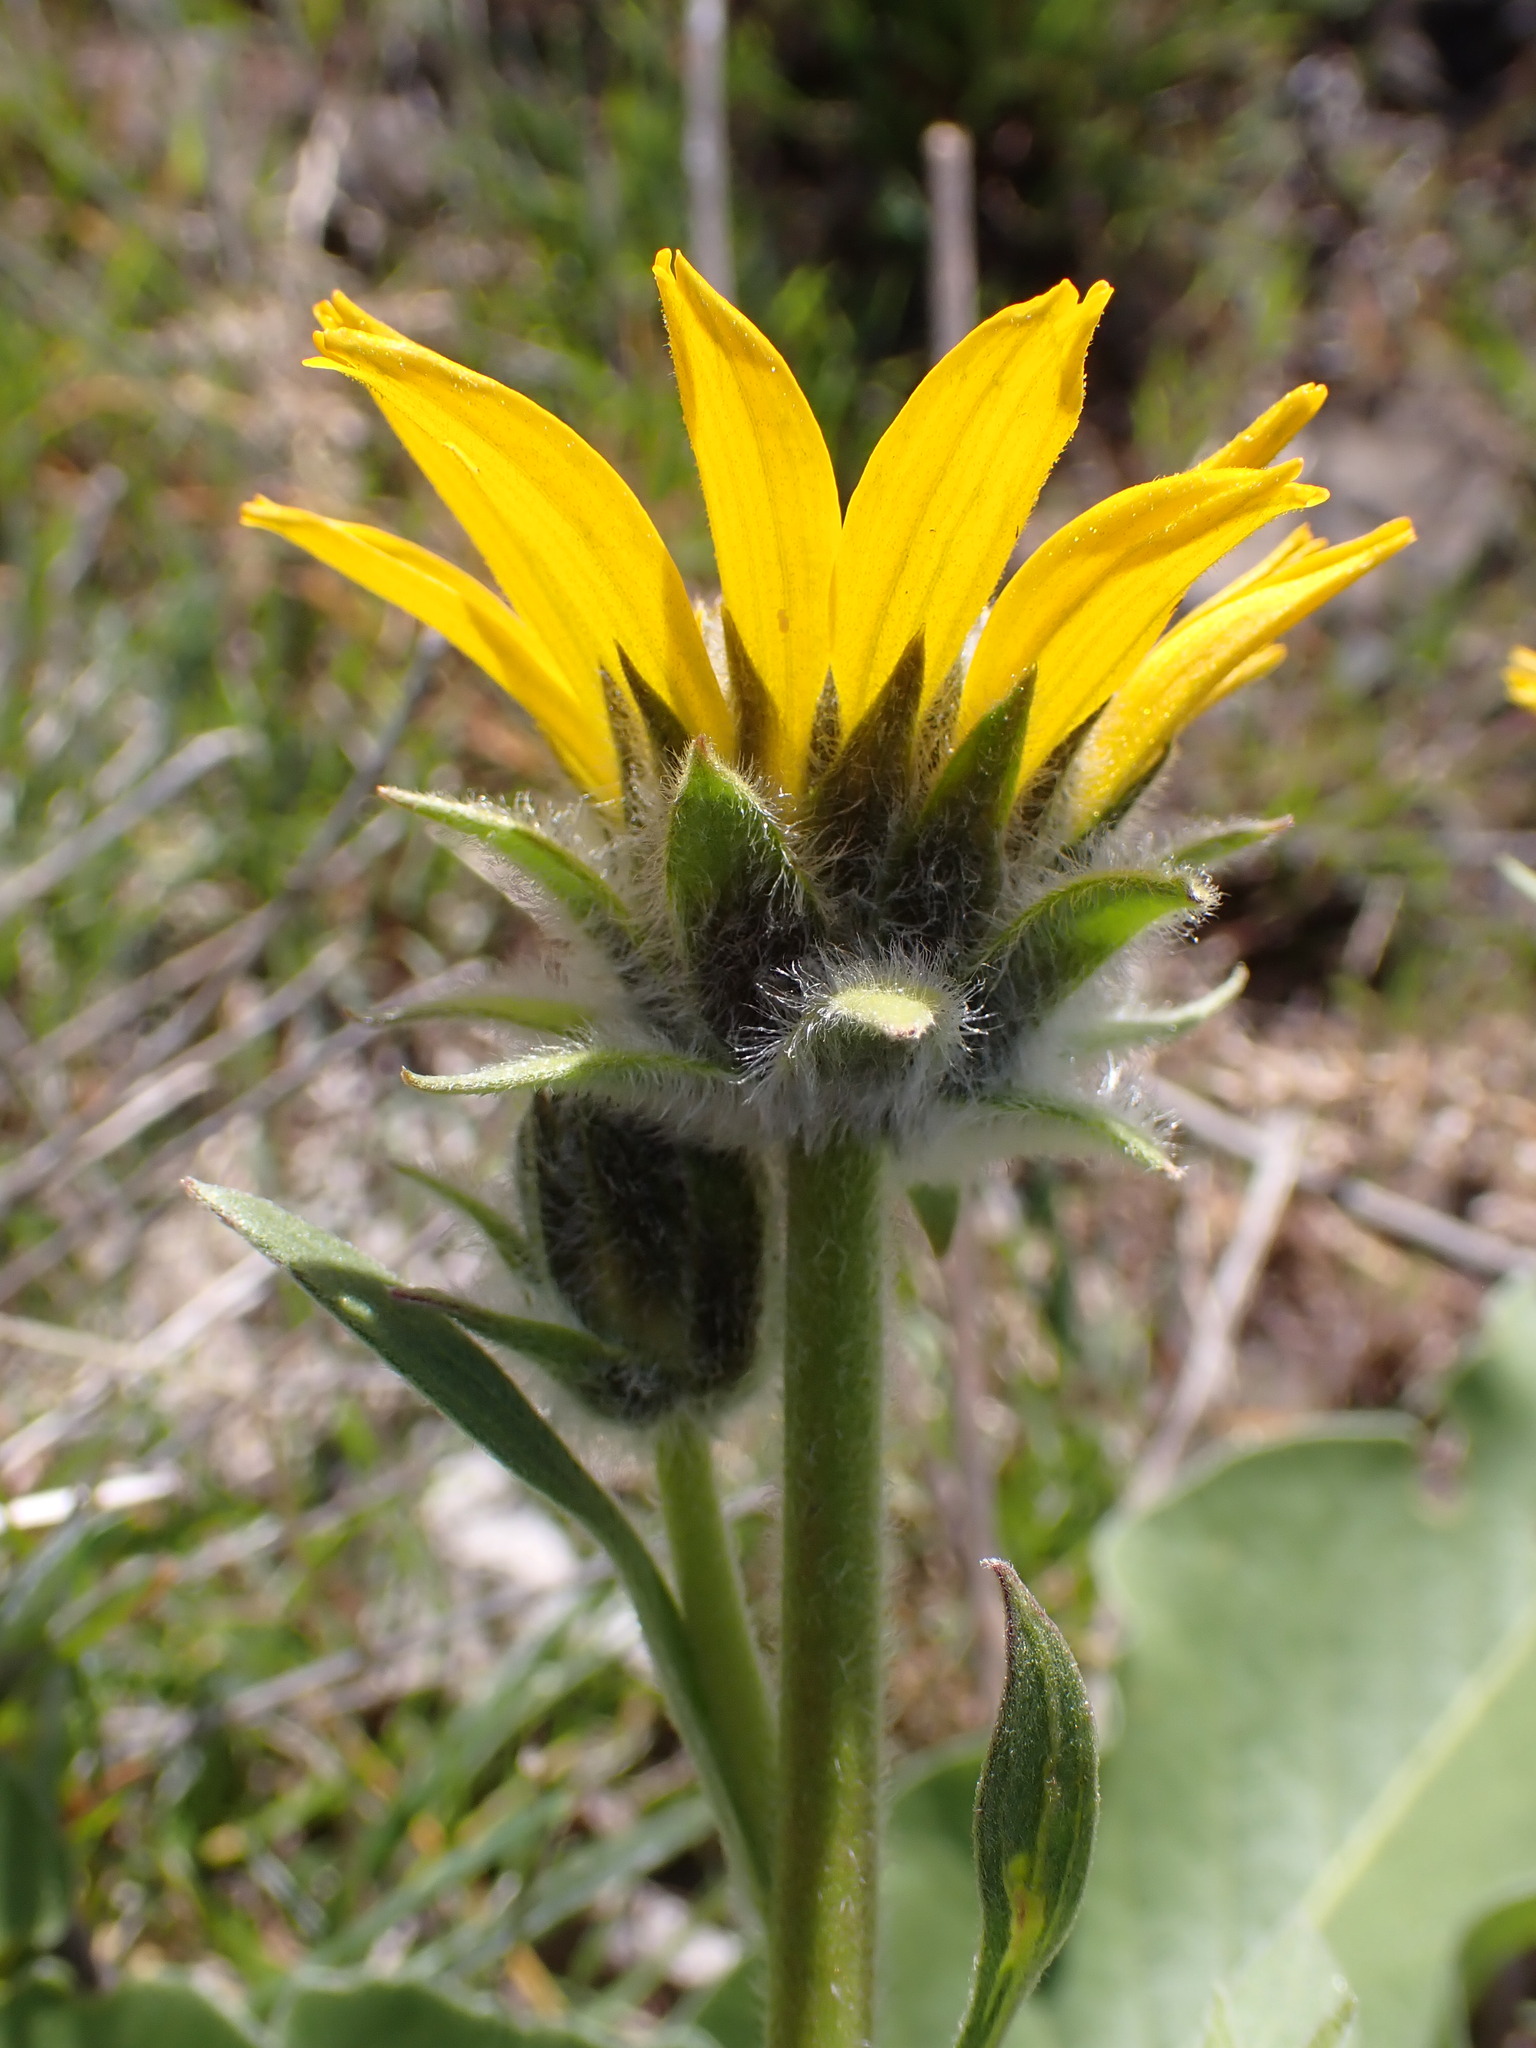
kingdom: Plantae
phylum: Tracheophyta
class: Magnoliopsida
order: Asterales
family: Asteraceae
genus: Balsamorhiza
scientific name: Balsamorhiza careyana
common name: Carey's balsamroot
